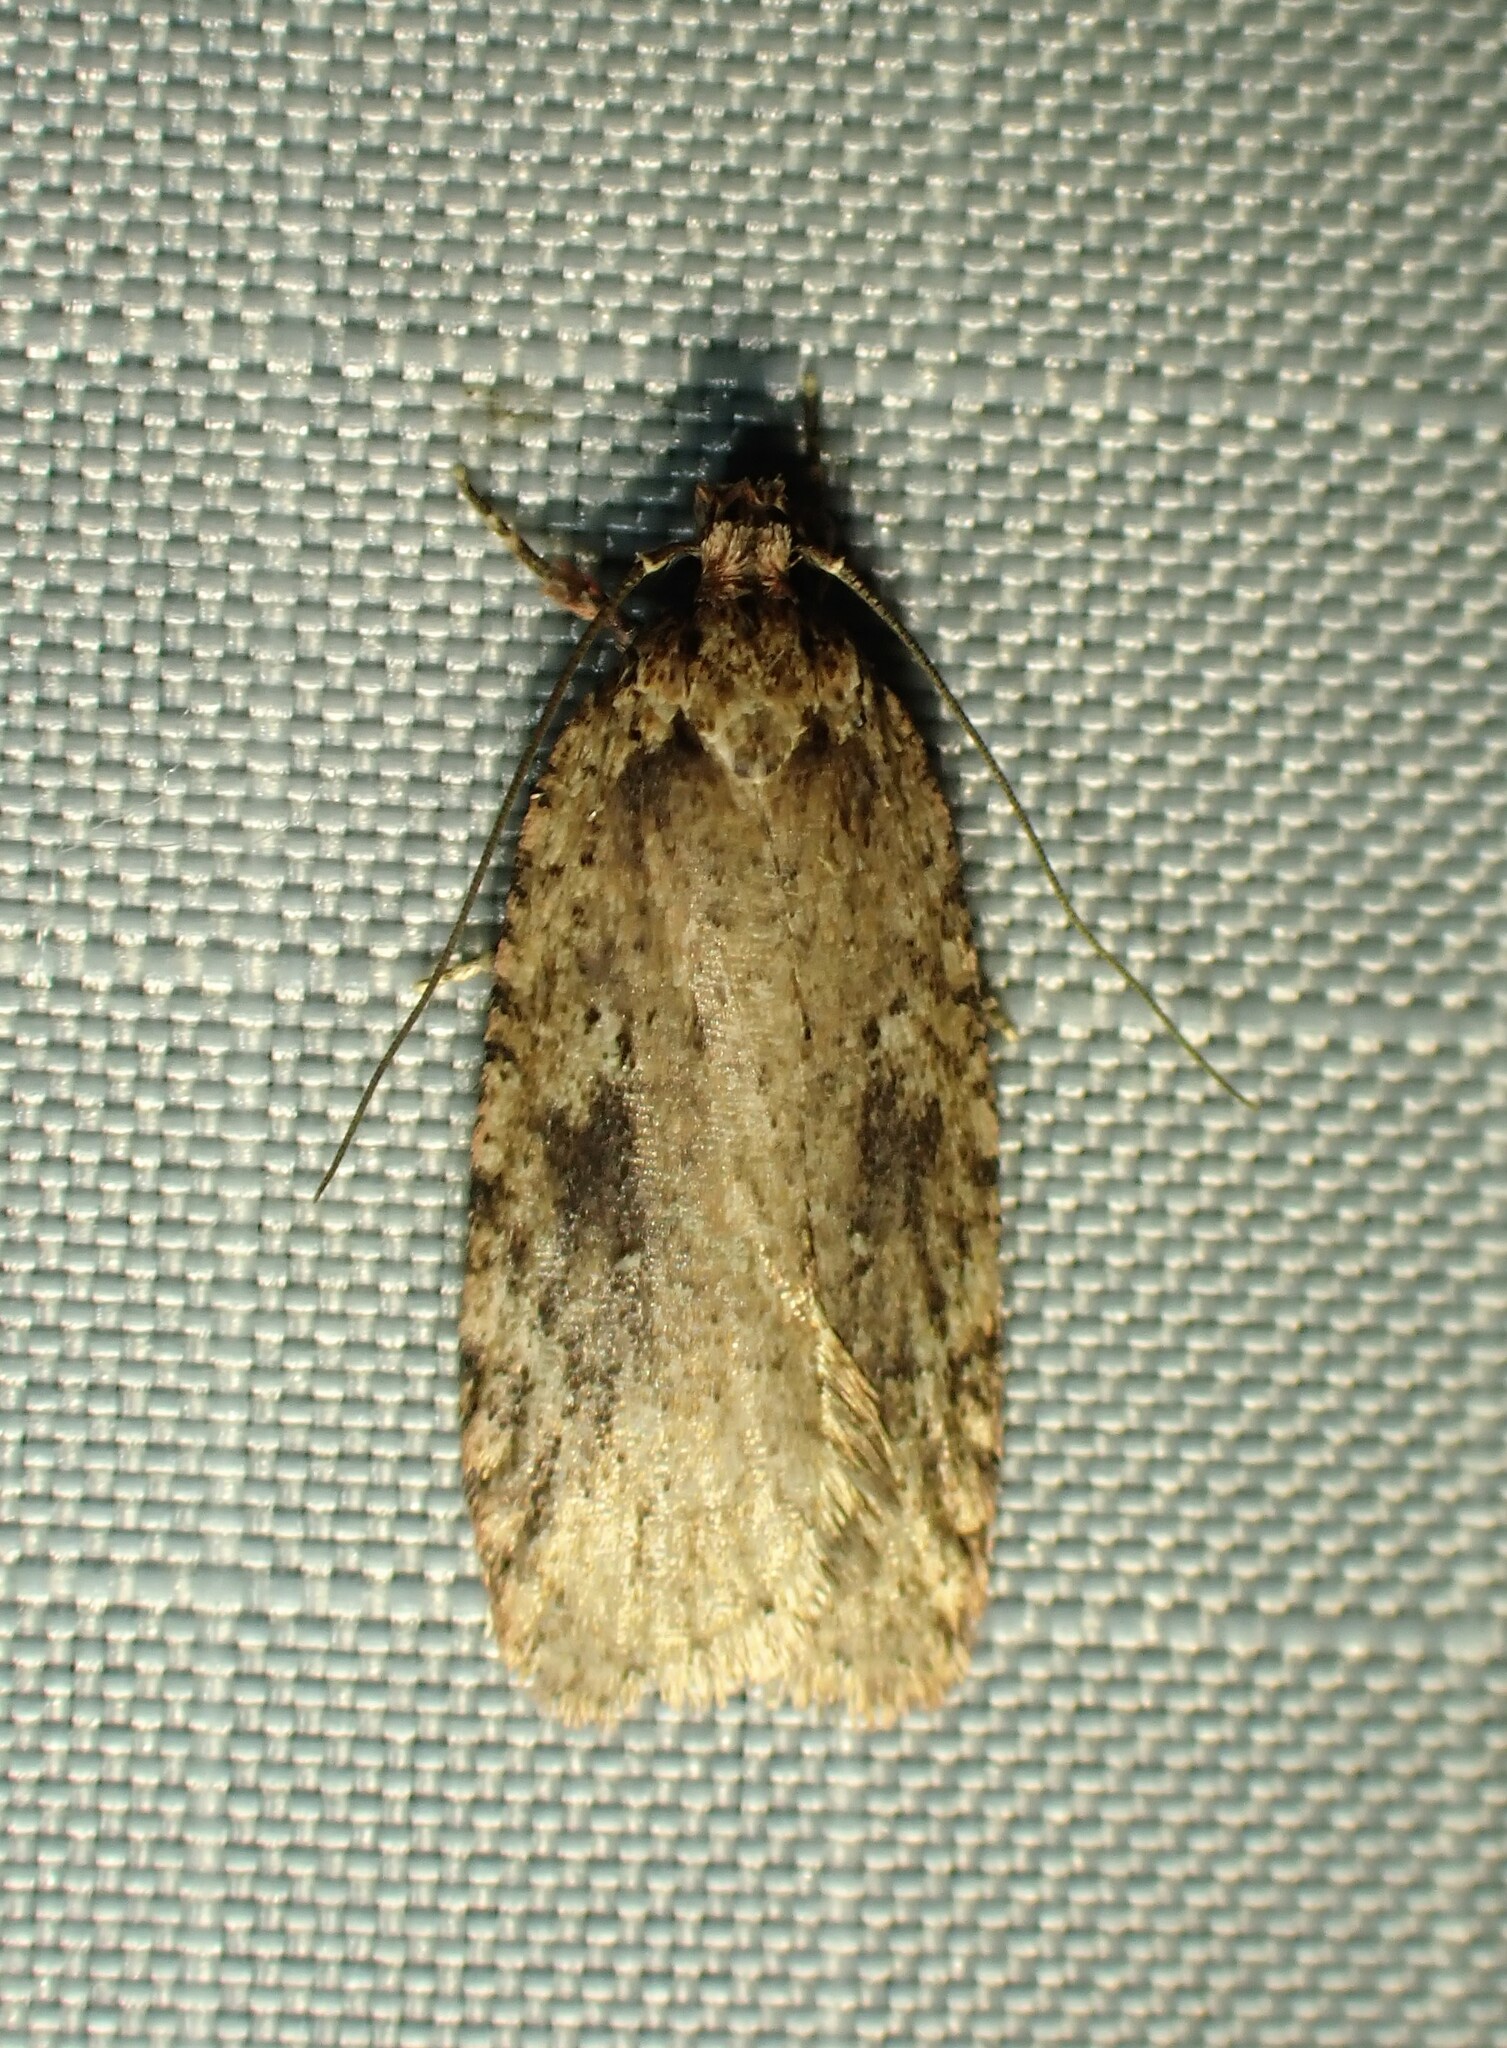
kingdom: Animalia
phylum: Arthropoda
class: Insecta
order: Lepidoptera
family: Depressariidae
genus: Agonopterix
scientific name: Agonopterix pulvipennella
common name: Goldenrod leafffolder
